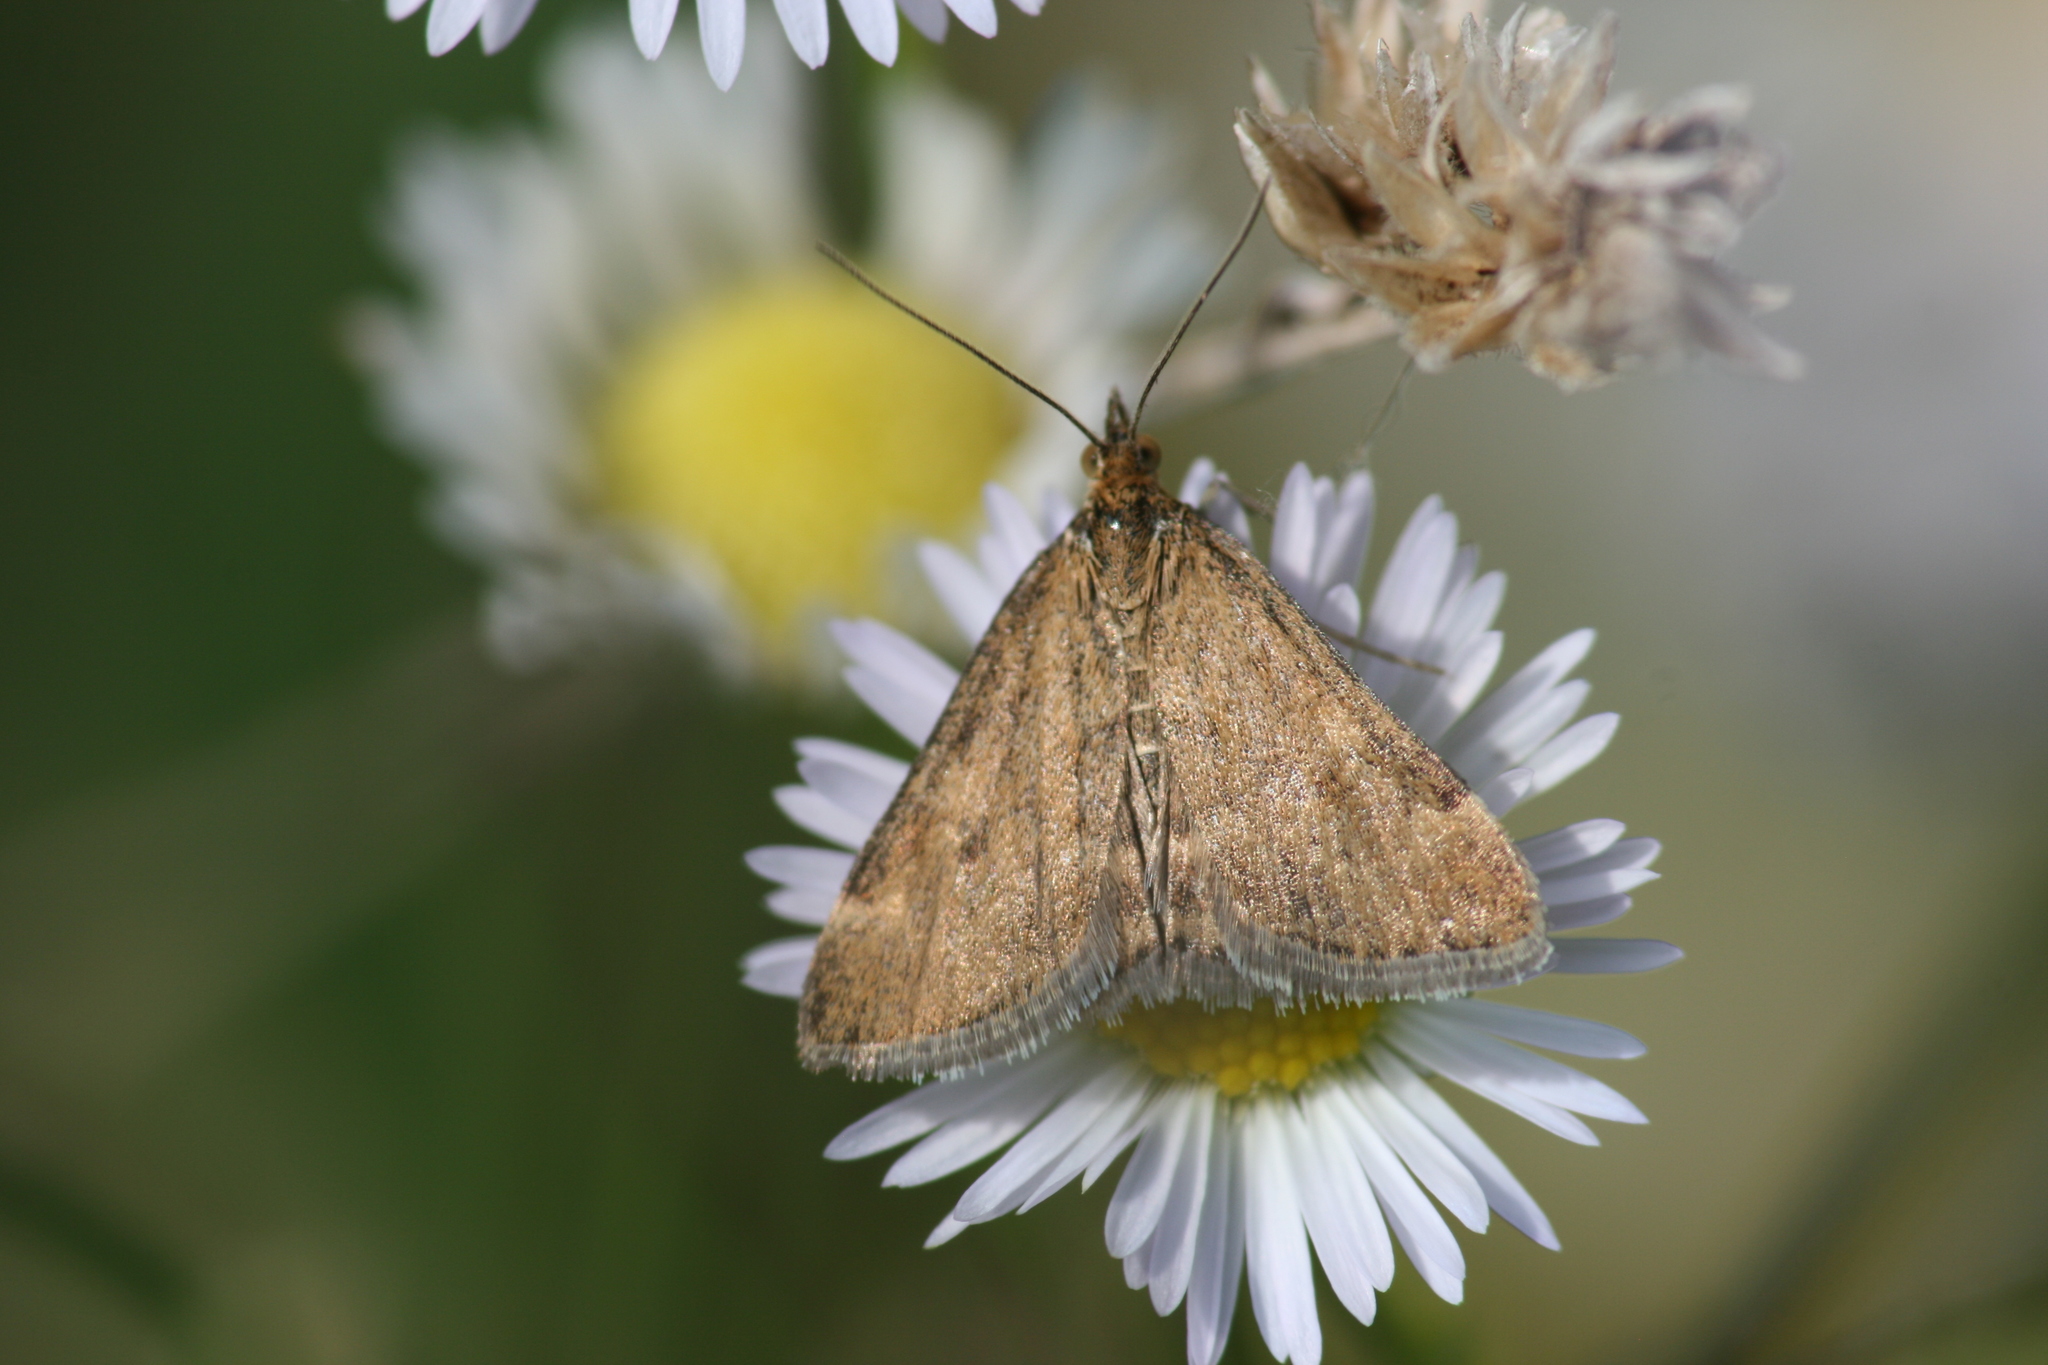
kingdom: Animalia
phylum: Arthropoda
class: Insecta
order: Lepidoptera
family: Crambidae
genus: Pyrausta
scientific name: Pyrausta despicata
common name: Straw-barred pearl
